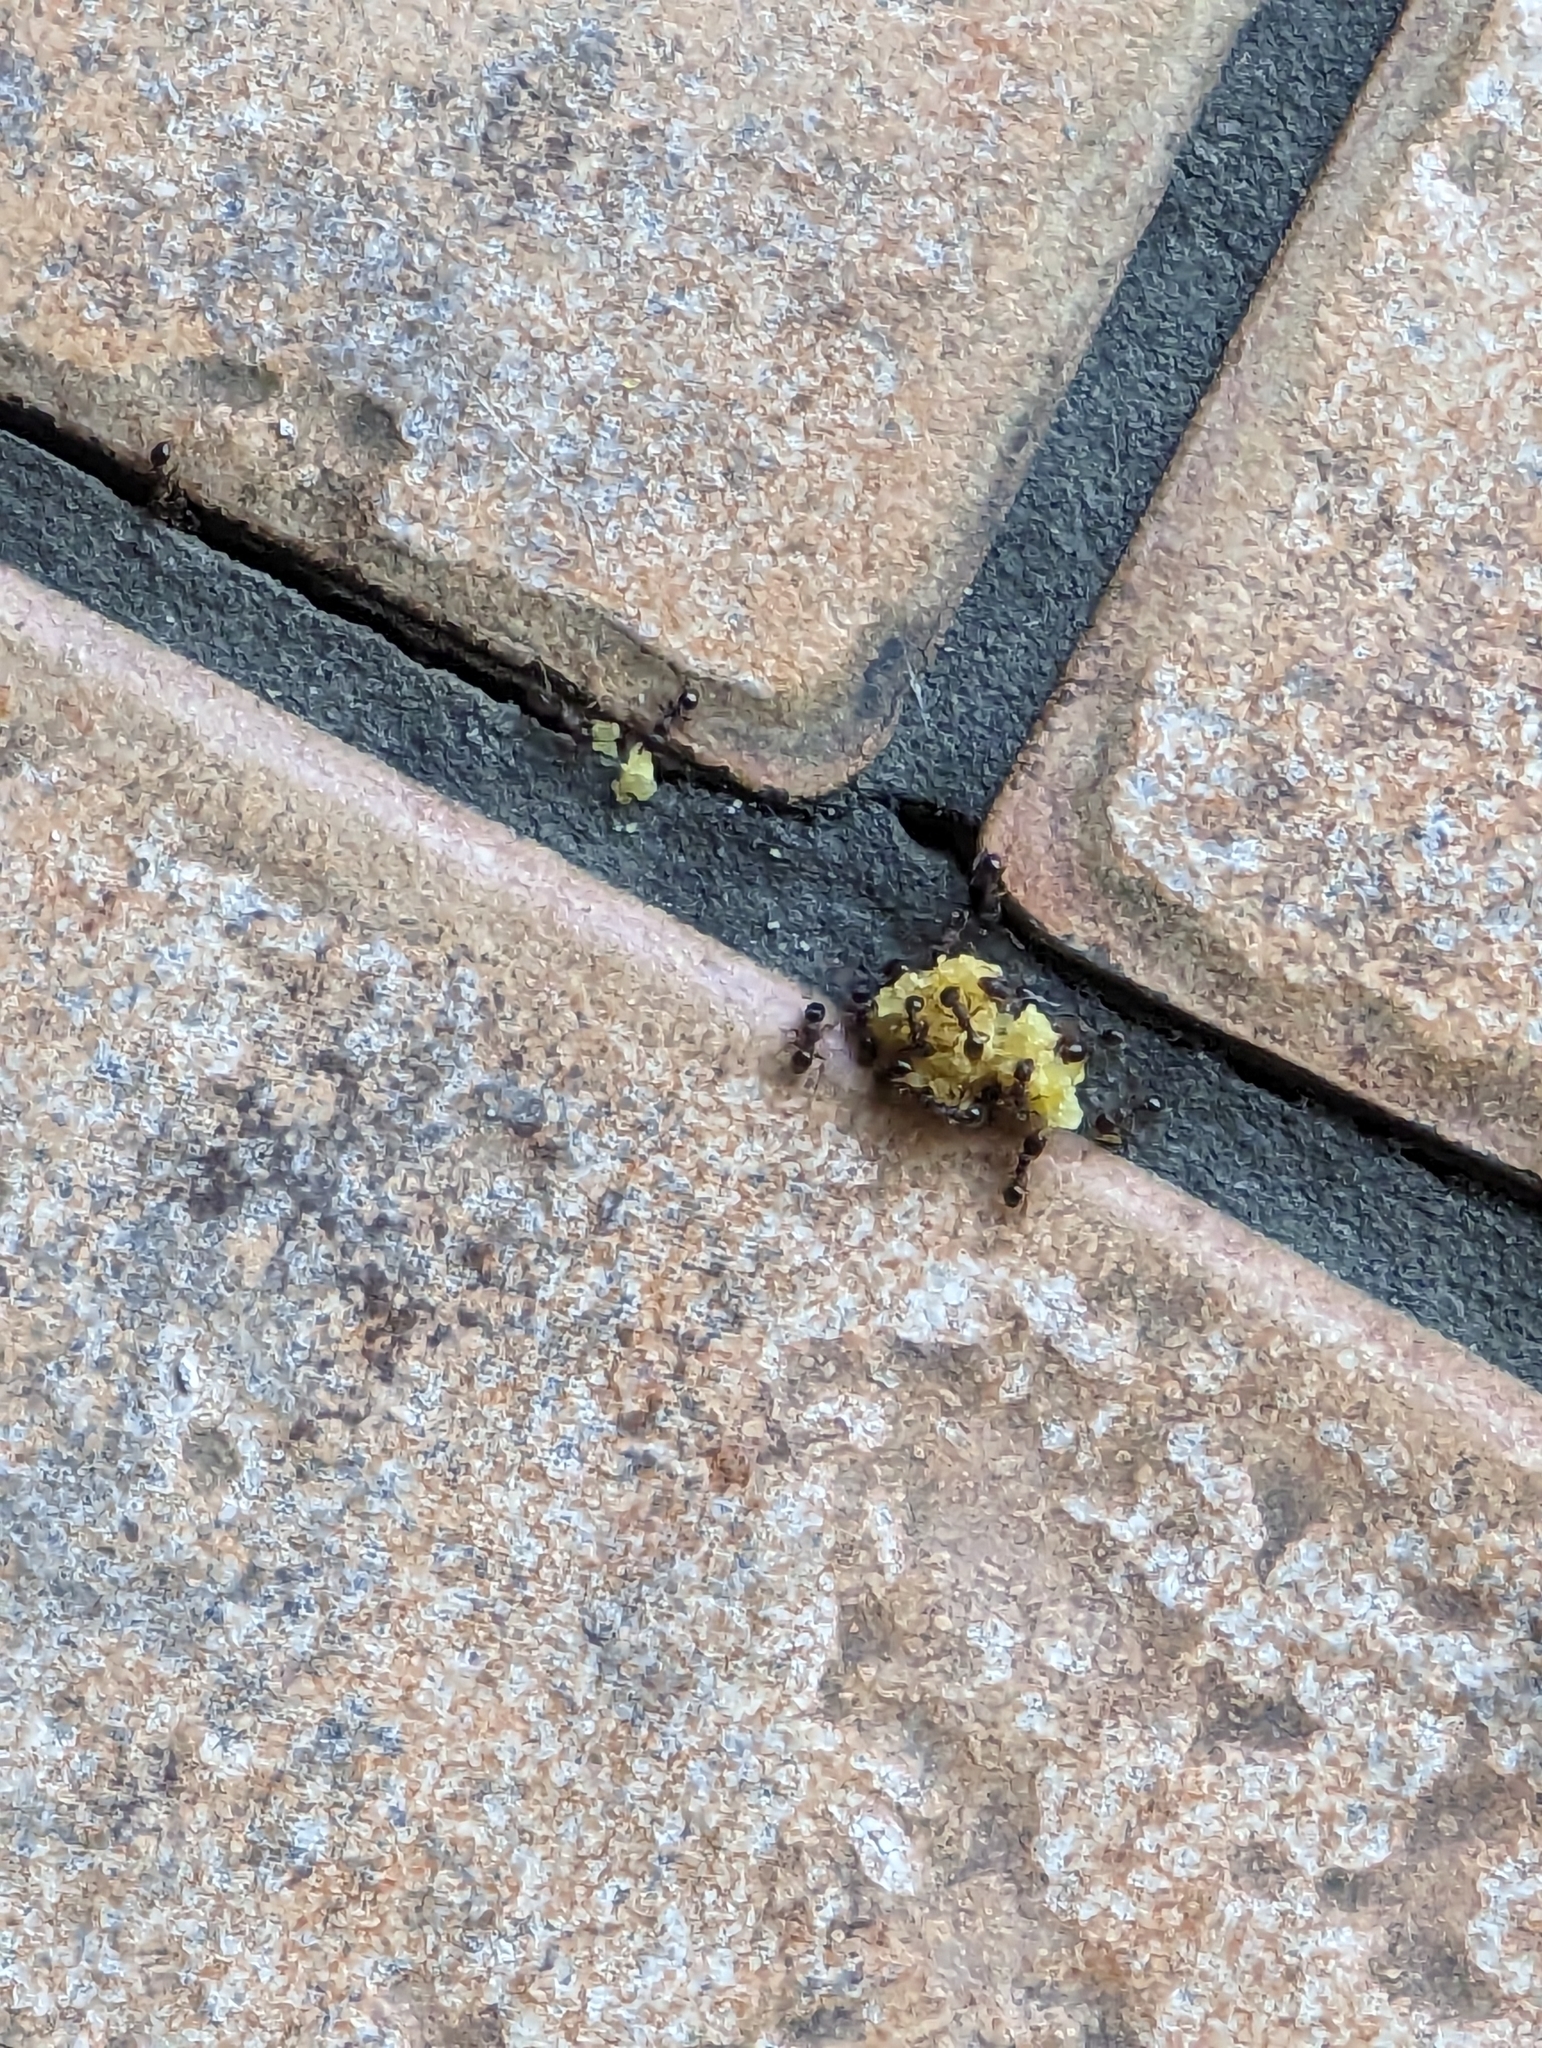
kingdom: Animalia
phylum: Arthropoda
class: Insecta
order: Hymenoptera
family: Formicidae
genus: Tetramorium
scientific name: Tetramorium immigrans
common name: Pavement ant
